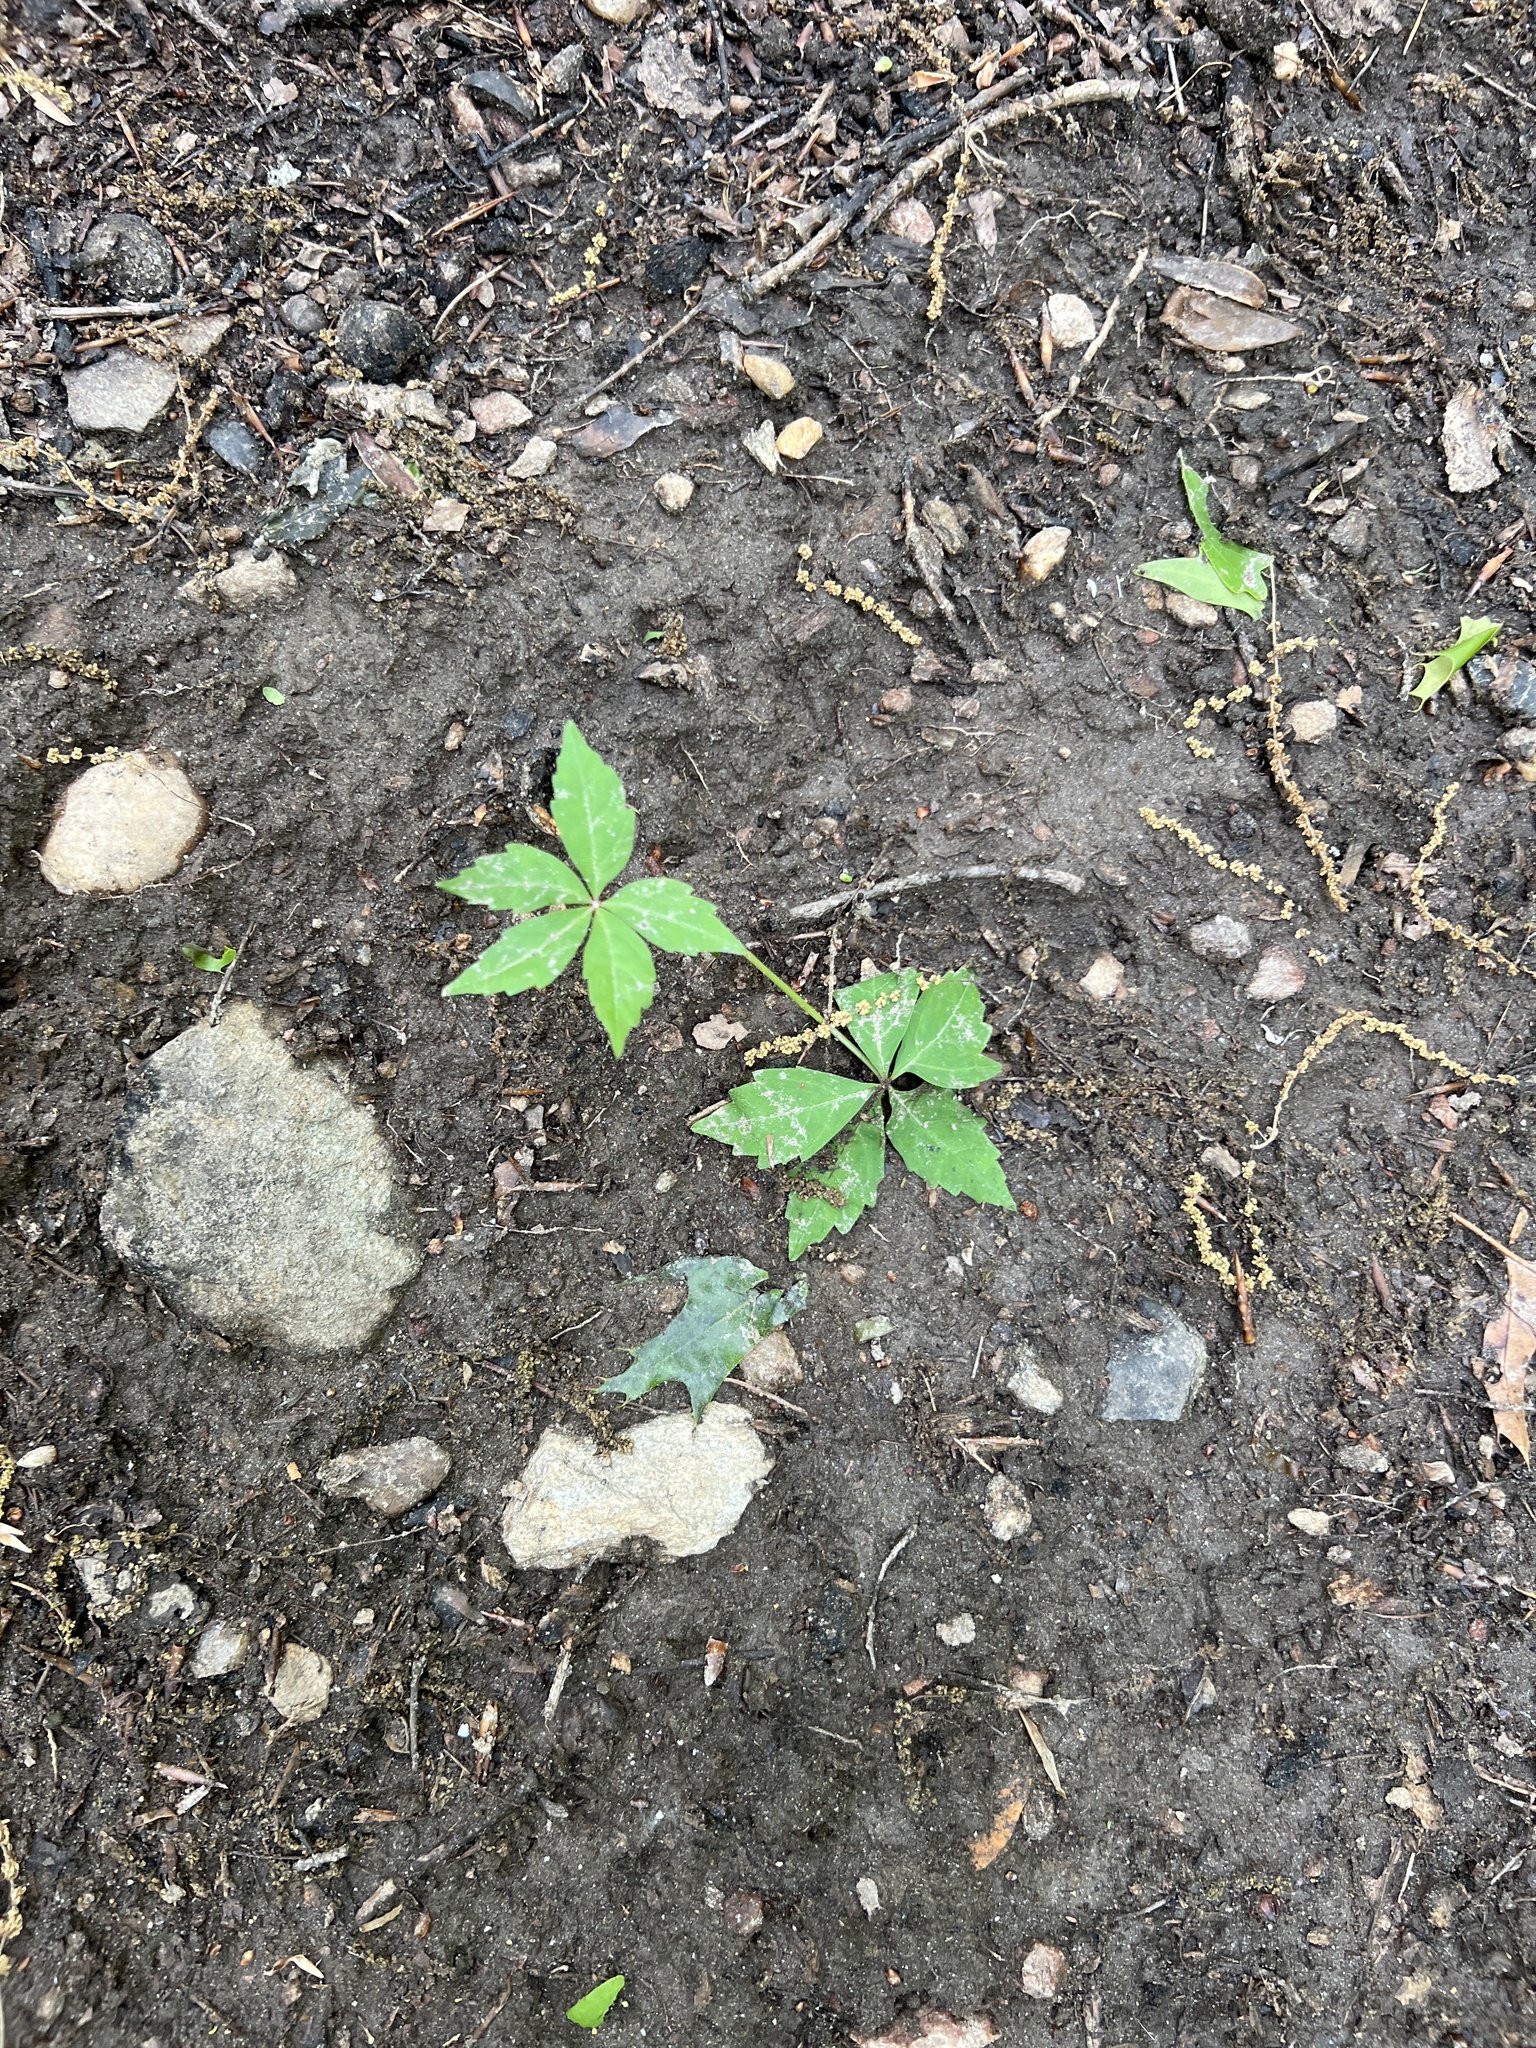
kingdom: Plantae
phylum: Tracheophyta
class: Magnoliopsida
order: Vitales
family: Vitaceae
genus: Parthenocissus
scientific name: Parthenocissus quinquefolia
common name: Virginia-creeper
